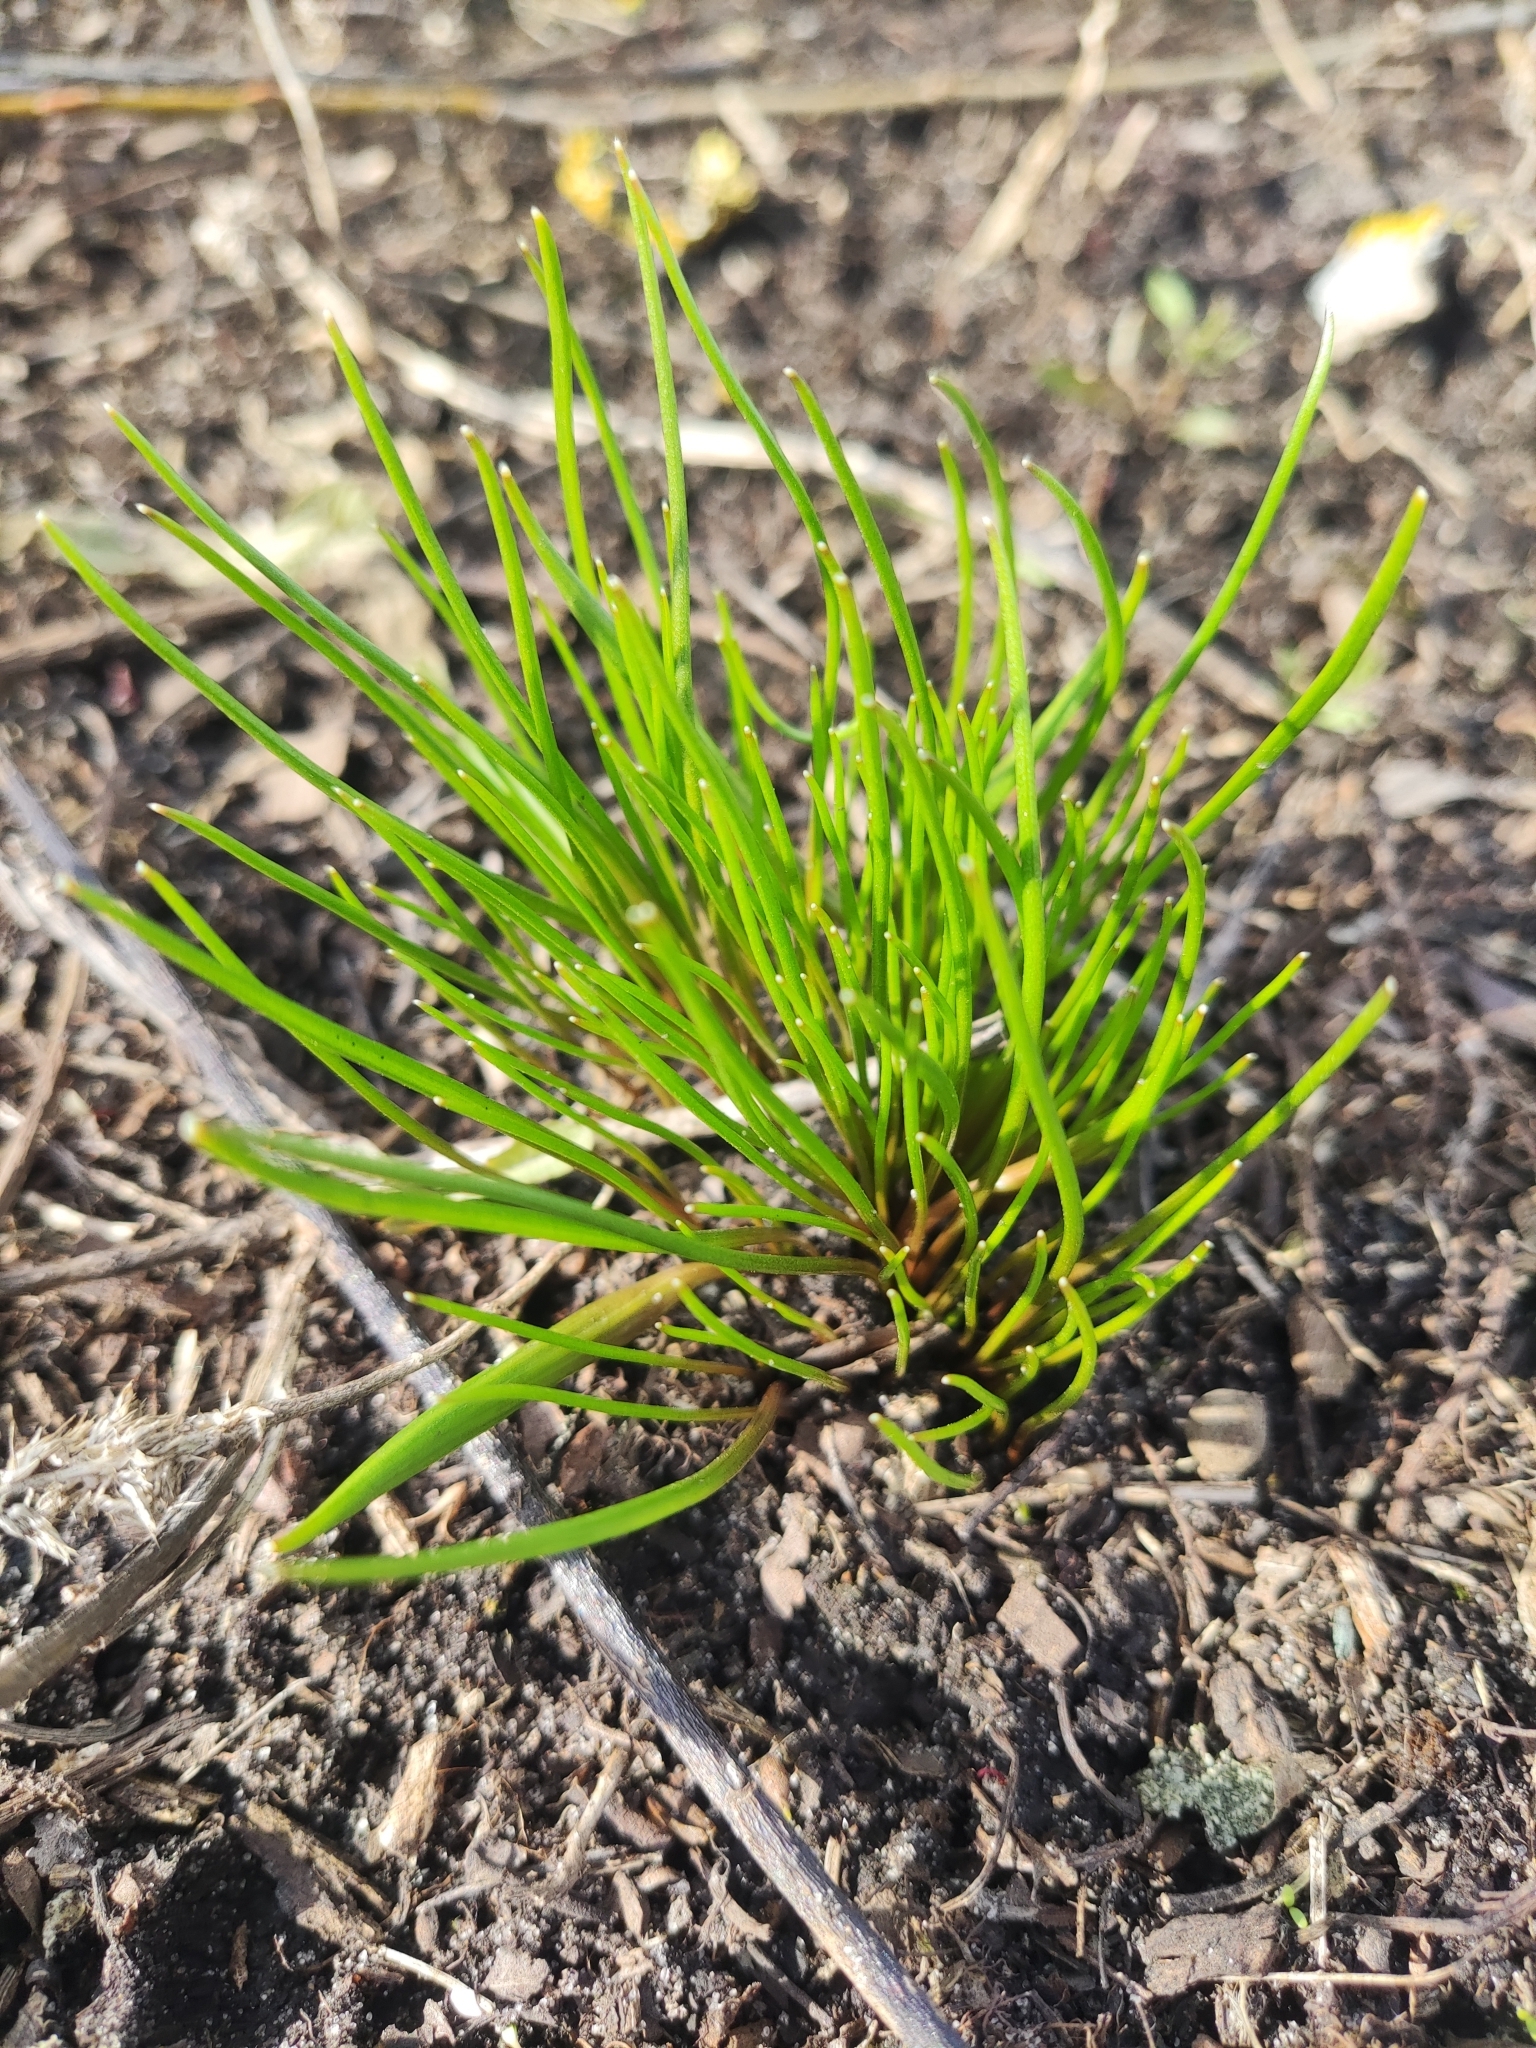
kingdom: Plantae
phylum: Tracheophyta
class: Liliopsida
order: Liliales
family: Liliaceae
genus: Gagea
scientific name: Gagea minima
